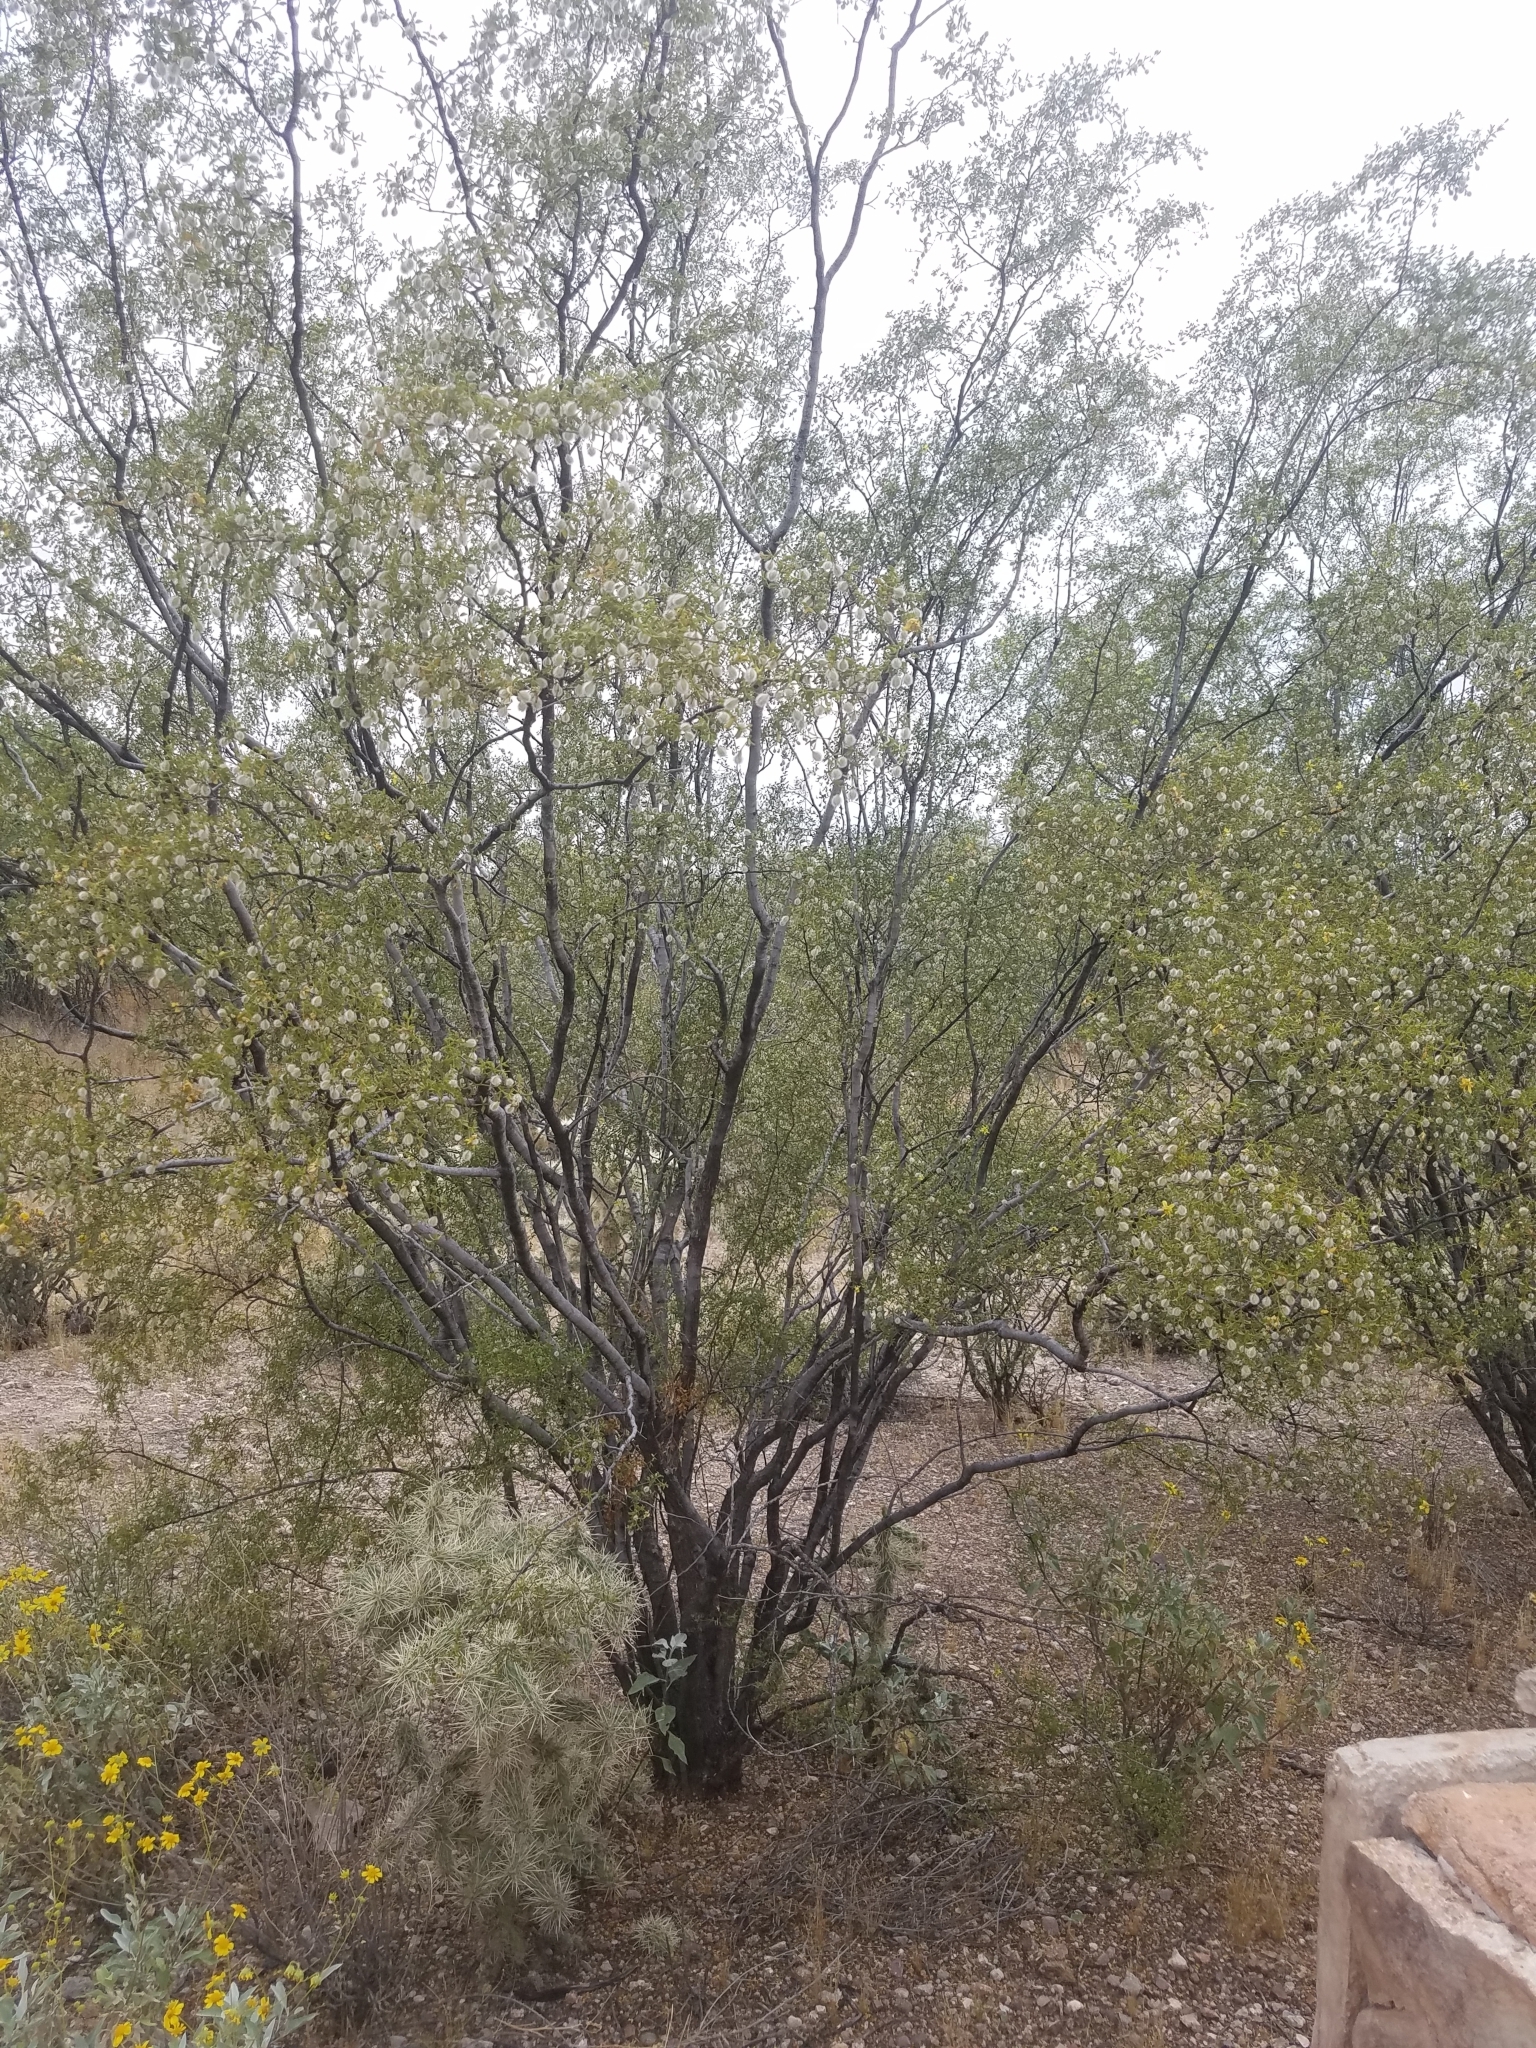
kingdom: Plantae
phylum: Tracheophyta
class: Magnoliopsida
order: Zygophyllales
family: Zygophyllaceae
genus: Larrea
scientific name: Larrea tridentata
